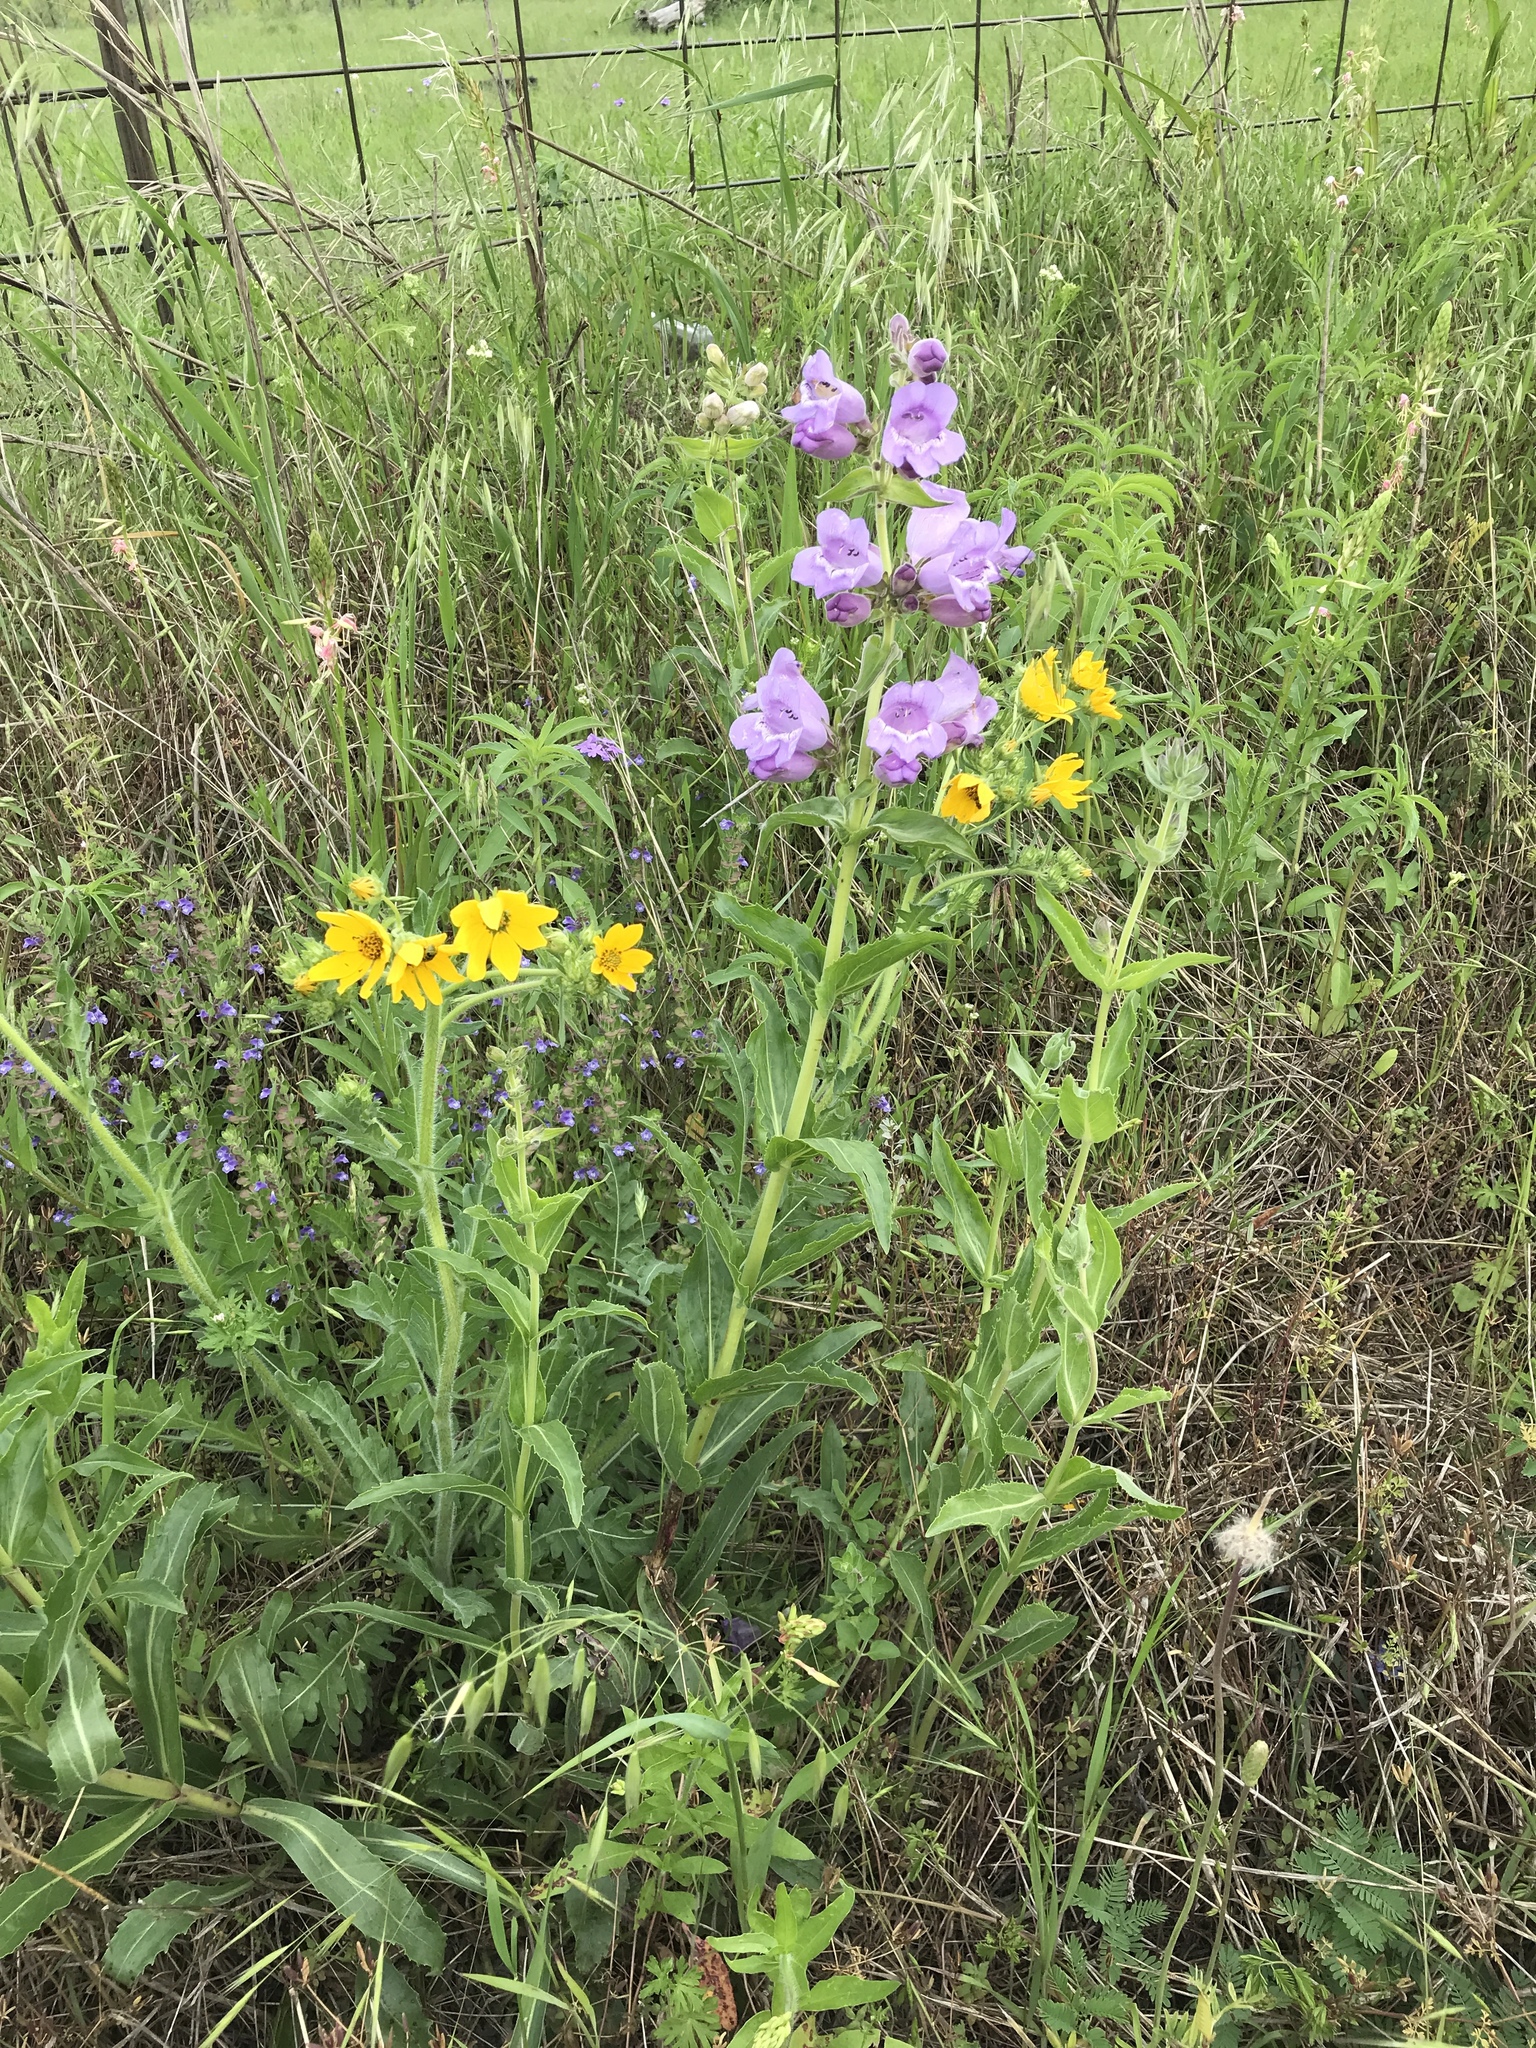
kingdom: Plantae
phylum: Tracheophyta
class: Magnoliopsida
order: Lamiales
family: Plantaginaceae
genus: Penstemon
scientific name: Penstemon cobaea
